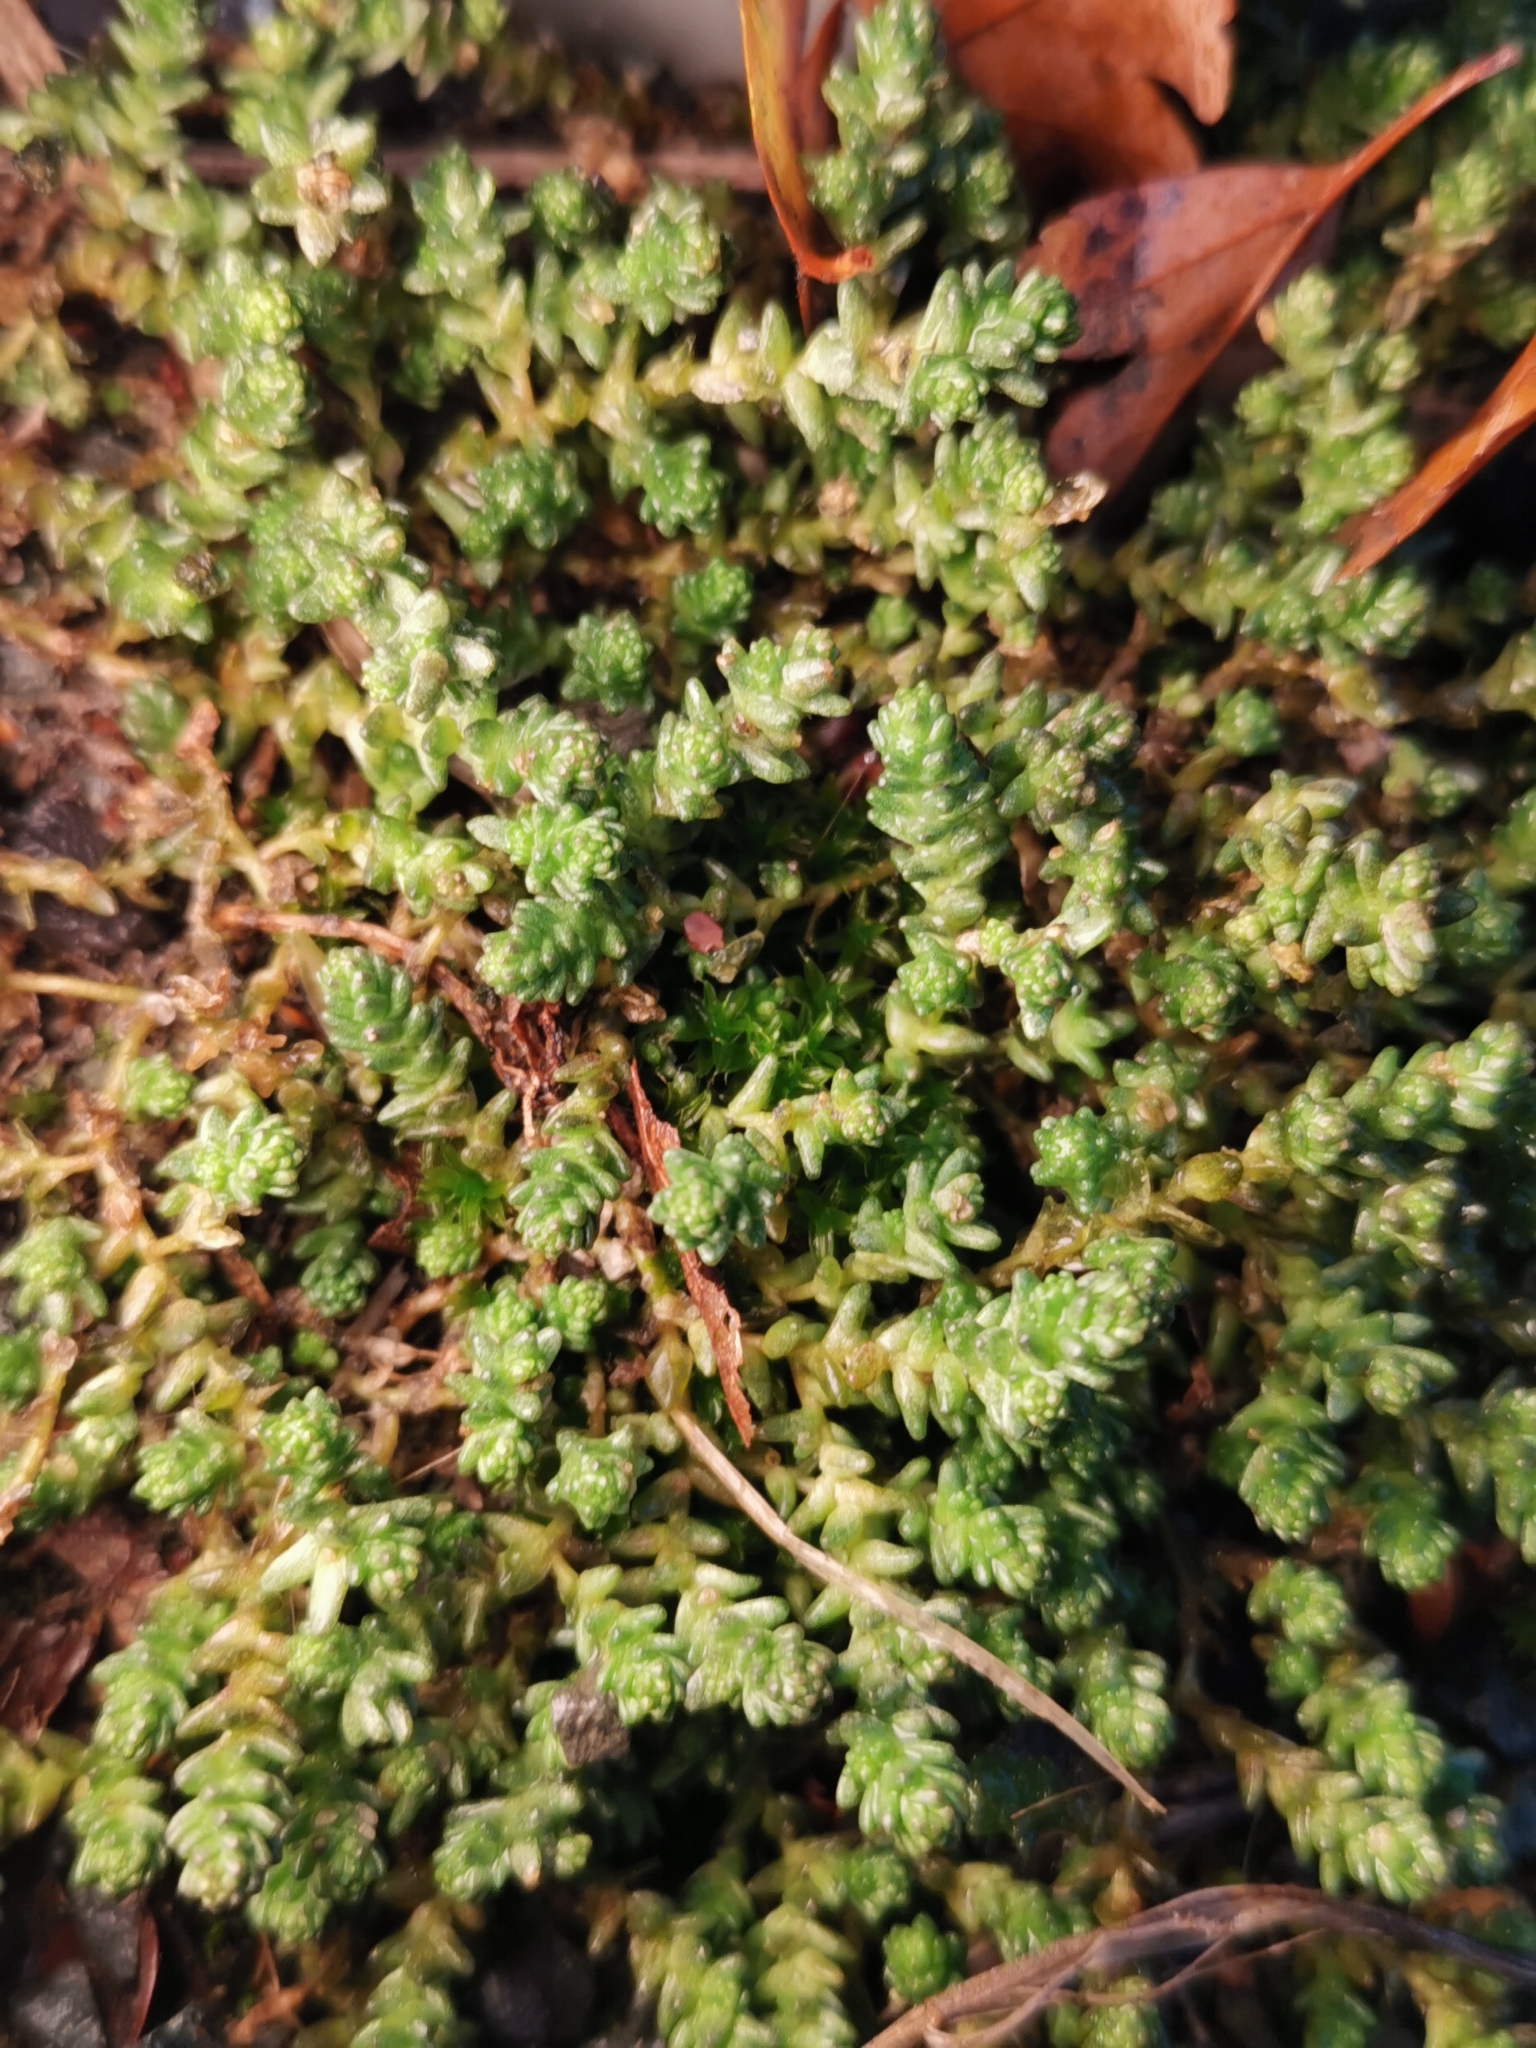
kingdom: Plantae
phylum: Tracheophyta
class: Magnoliopsida
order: Saxifragales
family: Crassulaceae
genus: Sedum
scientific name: Sedum acre
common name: Biting stonecrop
